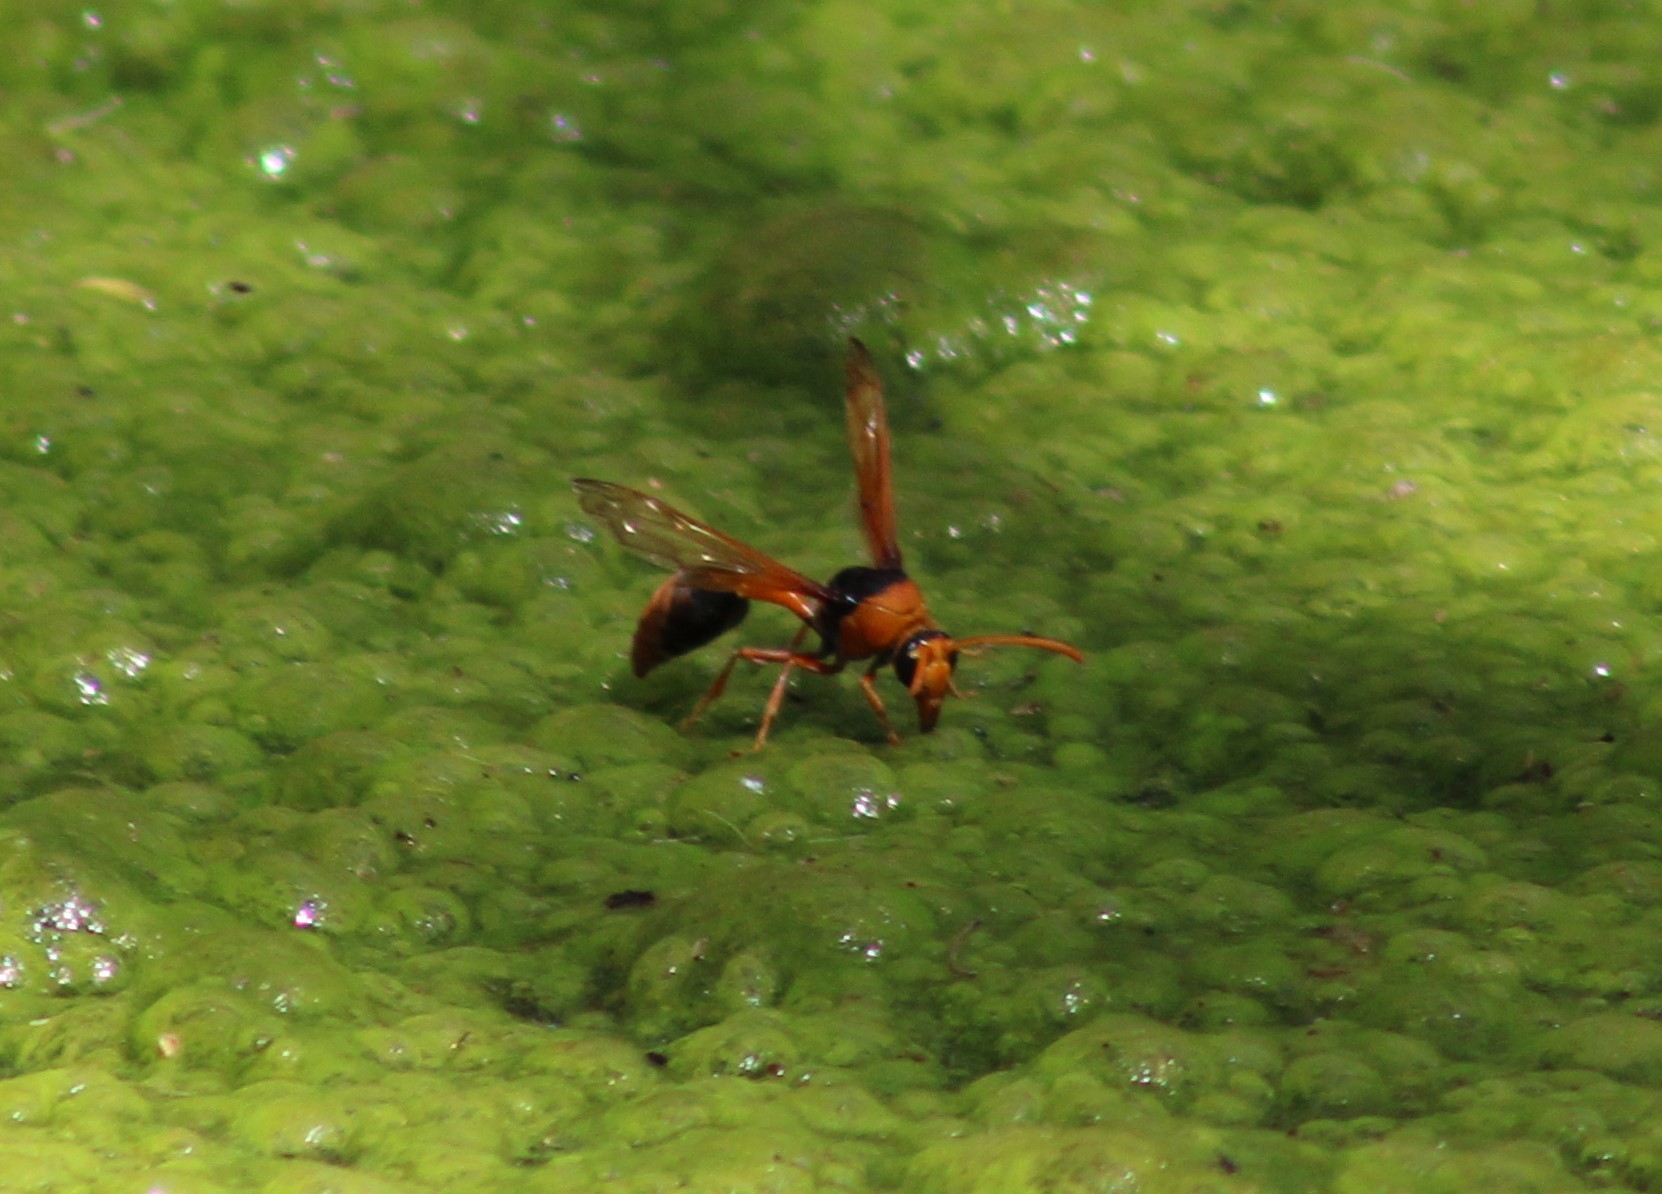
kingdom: Animalia
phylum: Arthropoda
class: Insecta
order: Hymenoptera
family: Eumenidae
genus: Delta
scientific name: Delta latreillei
